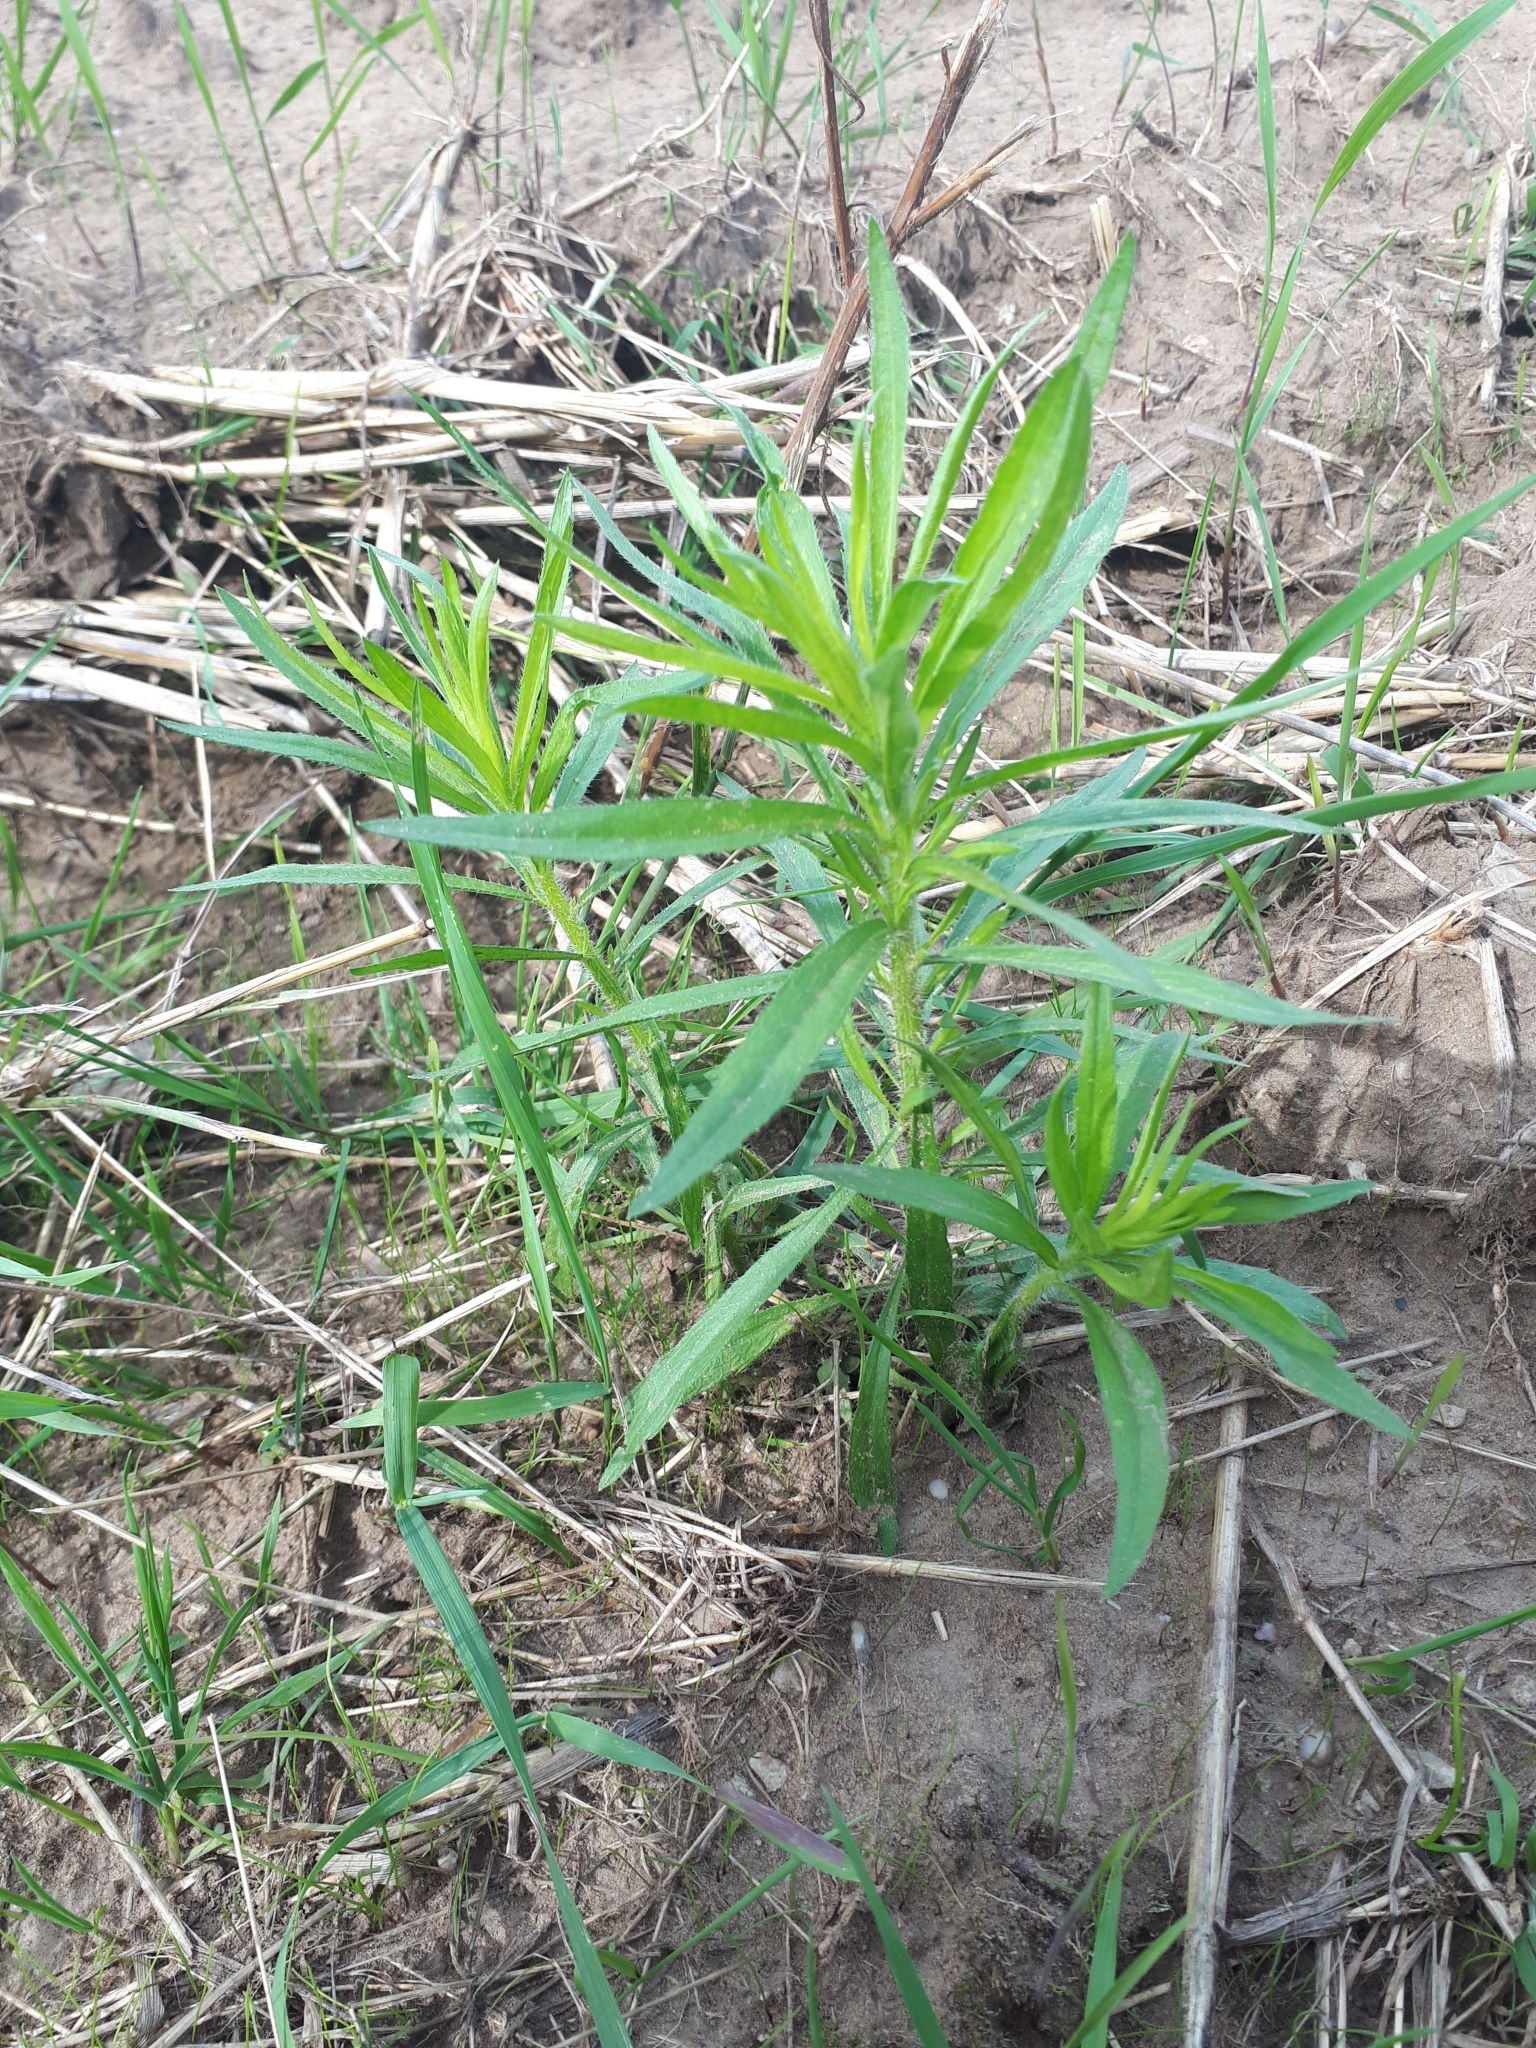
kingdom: Plantae
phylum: Tracheophyta
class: Magnoliopsida
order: Asterales
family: Asteraceae
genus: Erigeron
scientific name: Erigeron canadensis
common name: Canadian fleabane
